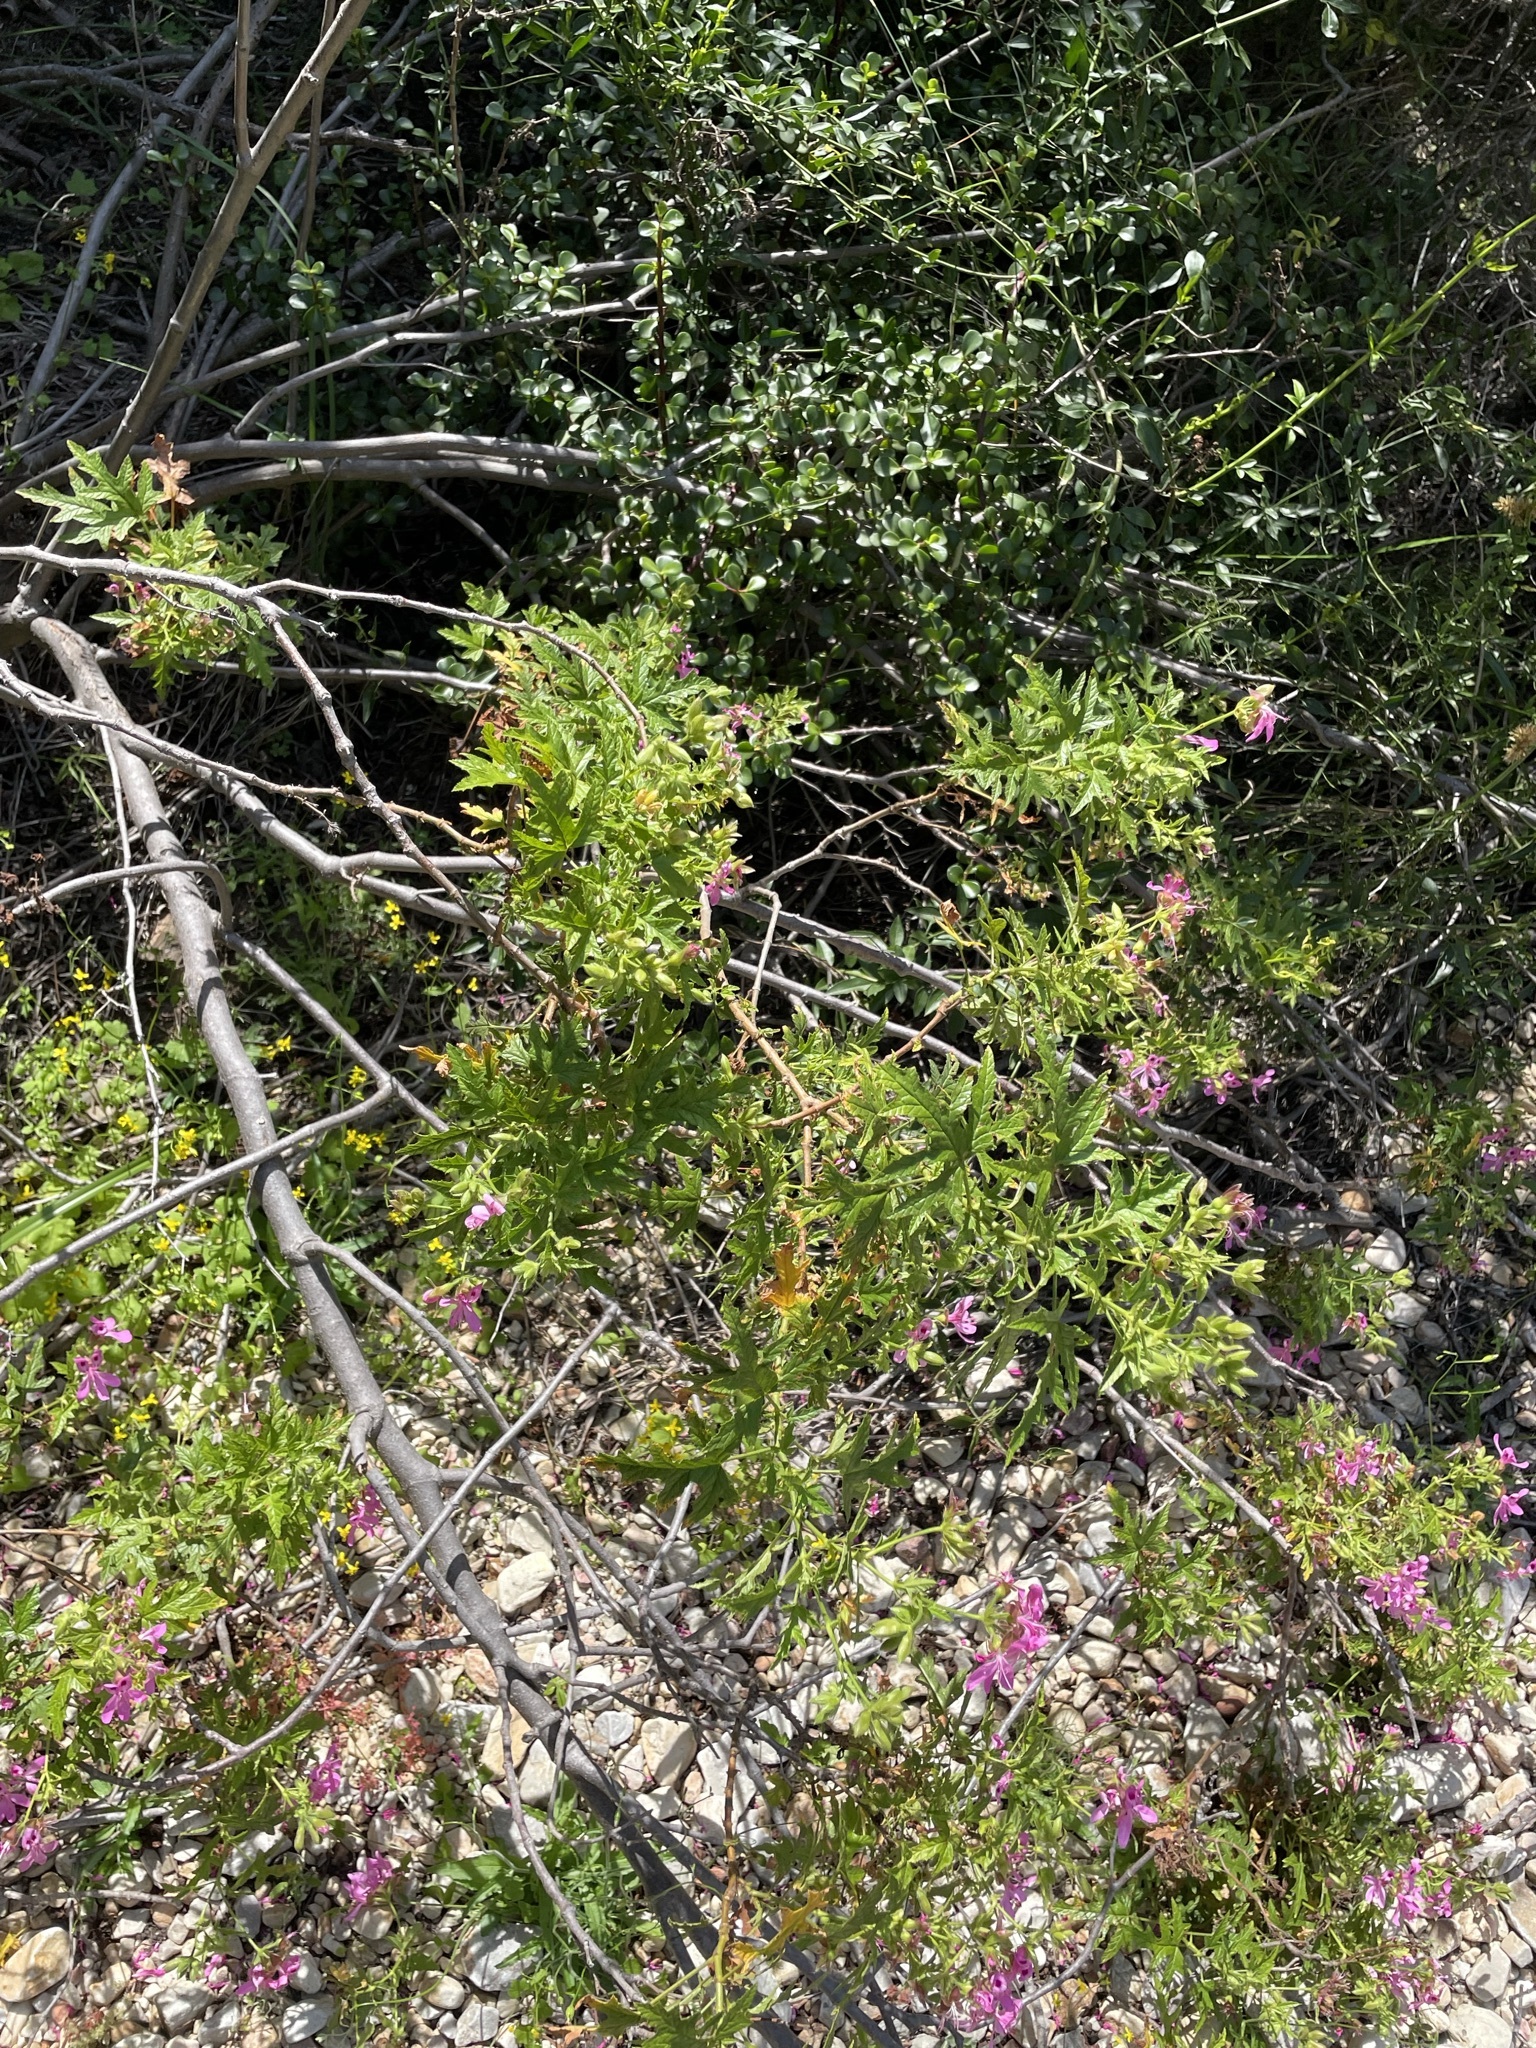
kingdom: Plantae
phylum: Tracheophyta
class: Magnoliopsida
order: Geraniales
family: Geraniaceae
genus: Pelargonium
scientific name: Pelargonium glutinosum
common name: Pheasant-foot geranium
